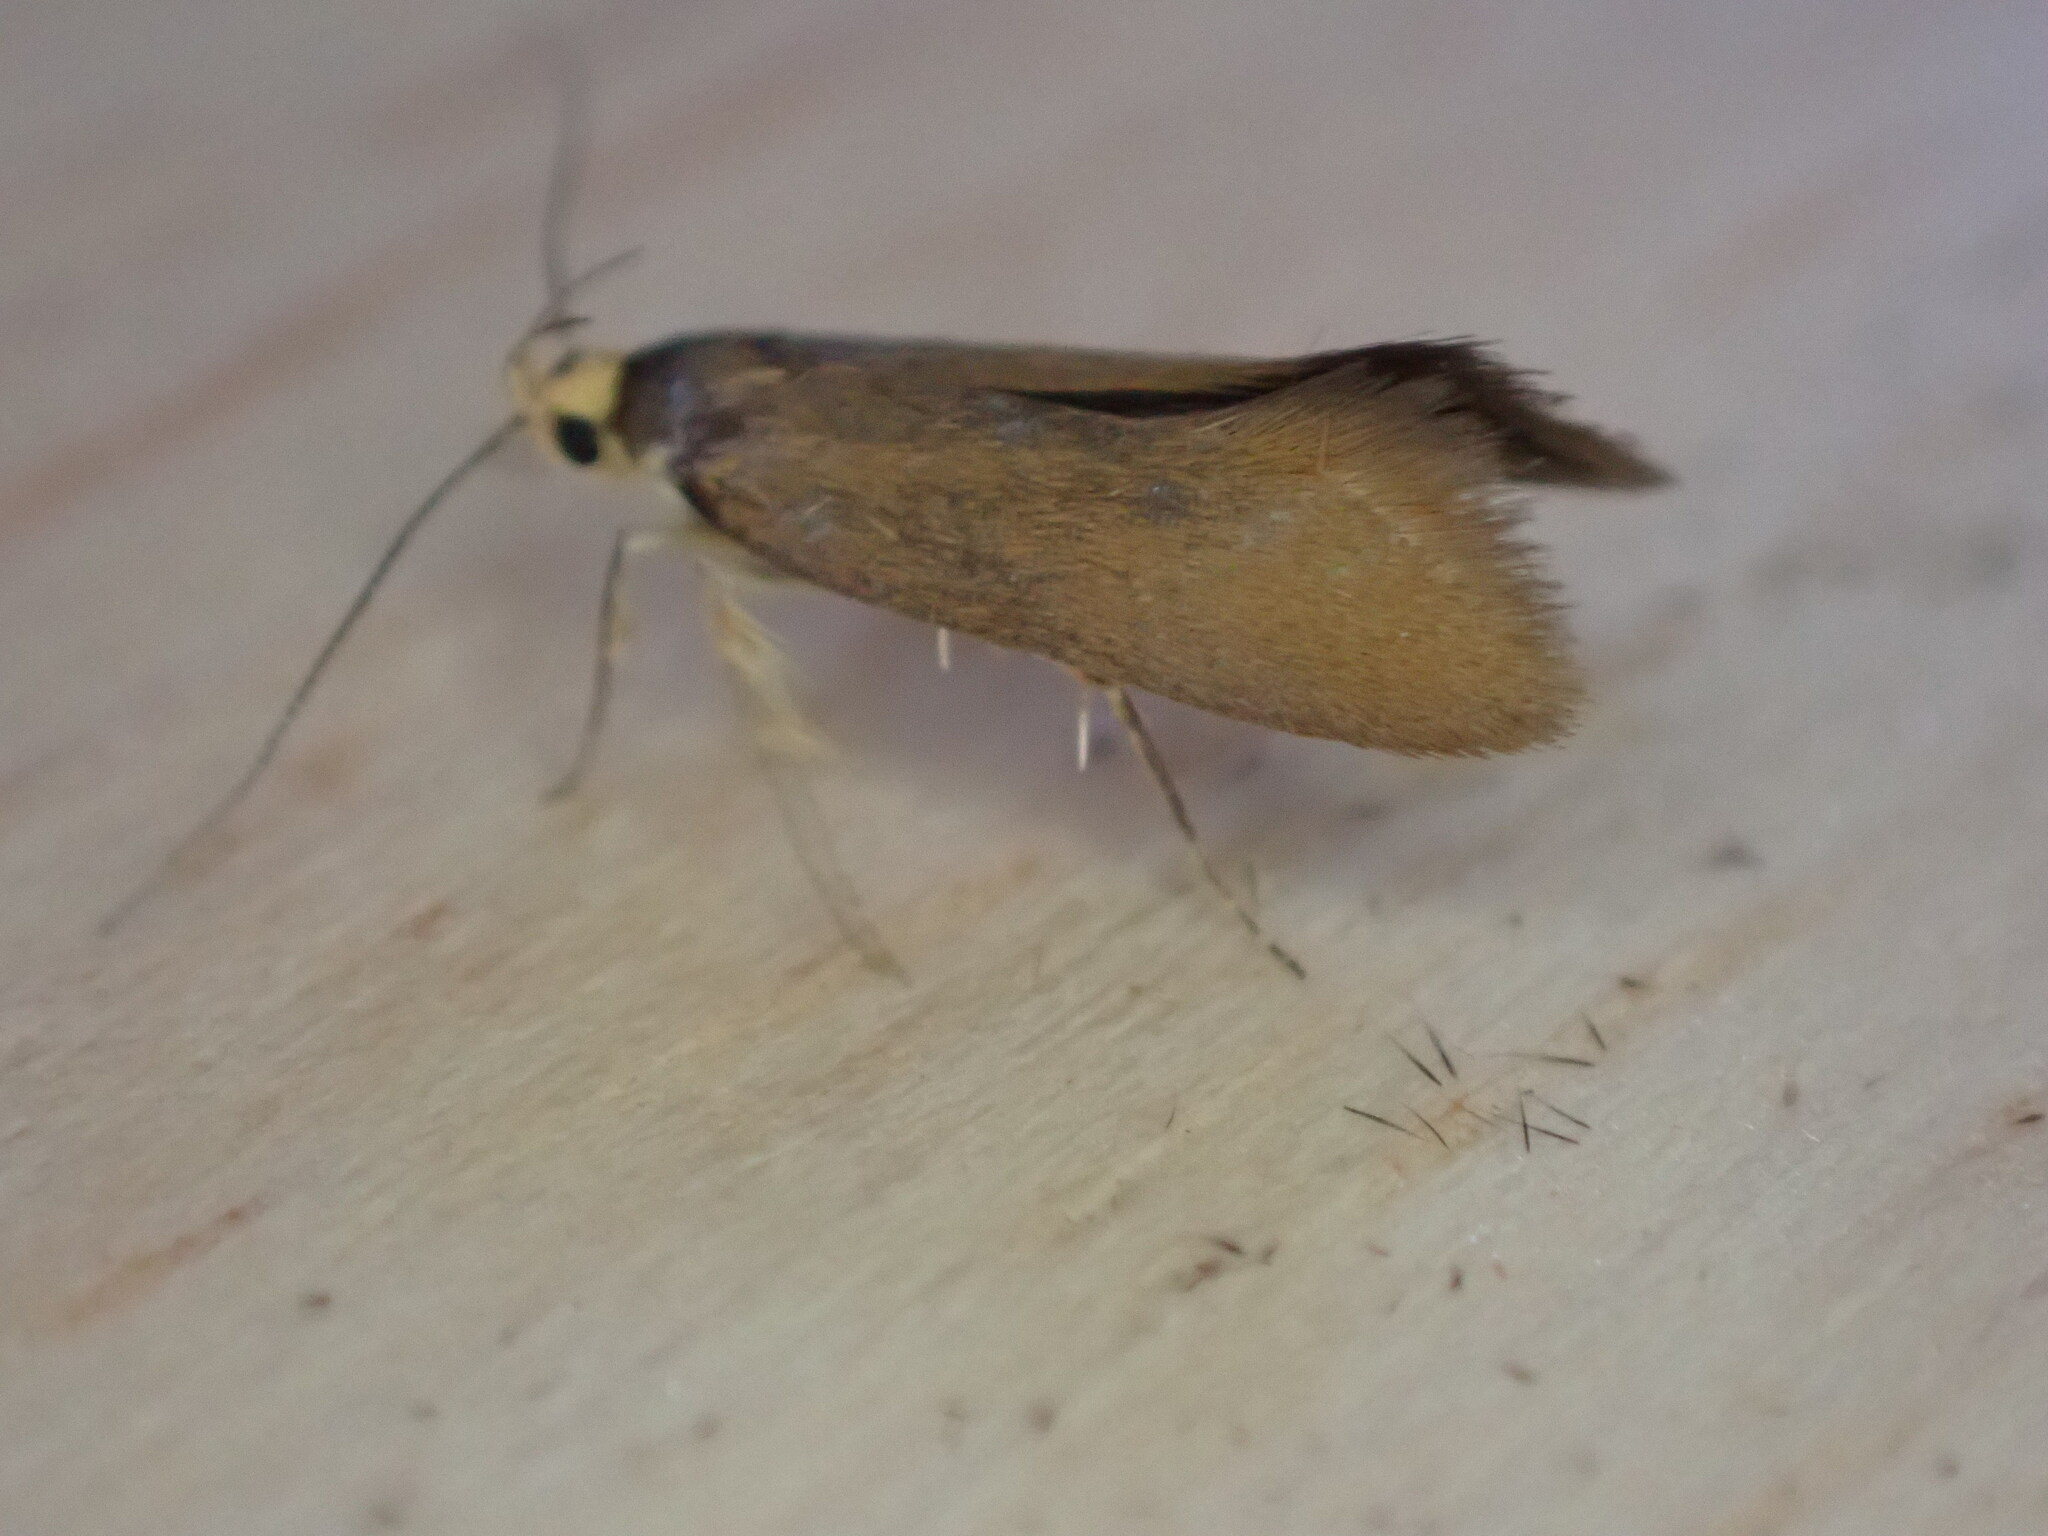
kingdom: Animalia
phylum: Arthropoda
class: Insecta
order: Lepidoptera
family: Oecophoridae
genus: Borkhausenia
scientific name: Borkhausenia Crassa unitella
